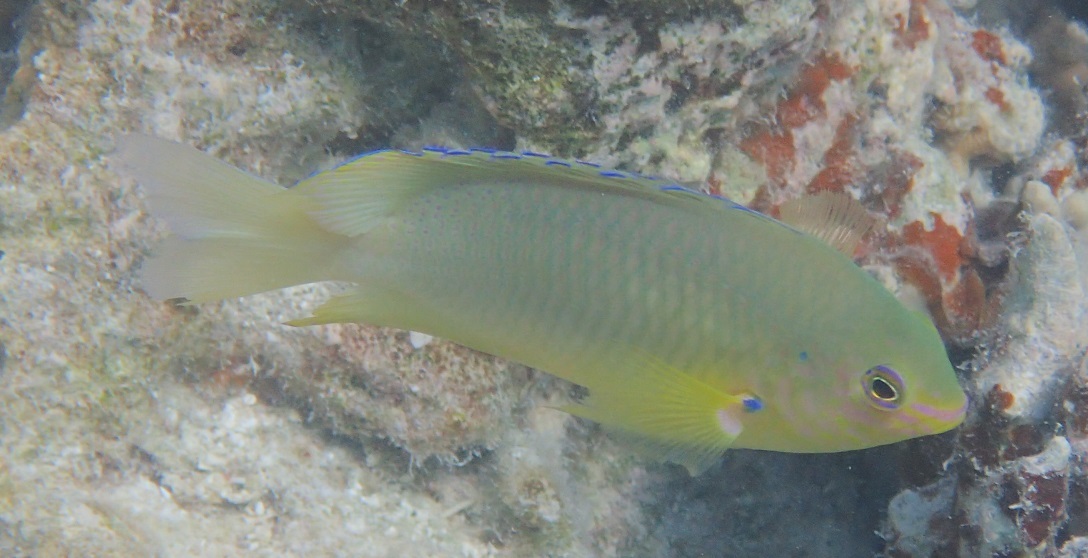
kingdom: Animalia
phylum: Chordata
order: Perciformes
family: Pomacentridae
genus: Pomacentrus
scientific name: Pomacentrus amboinensis
